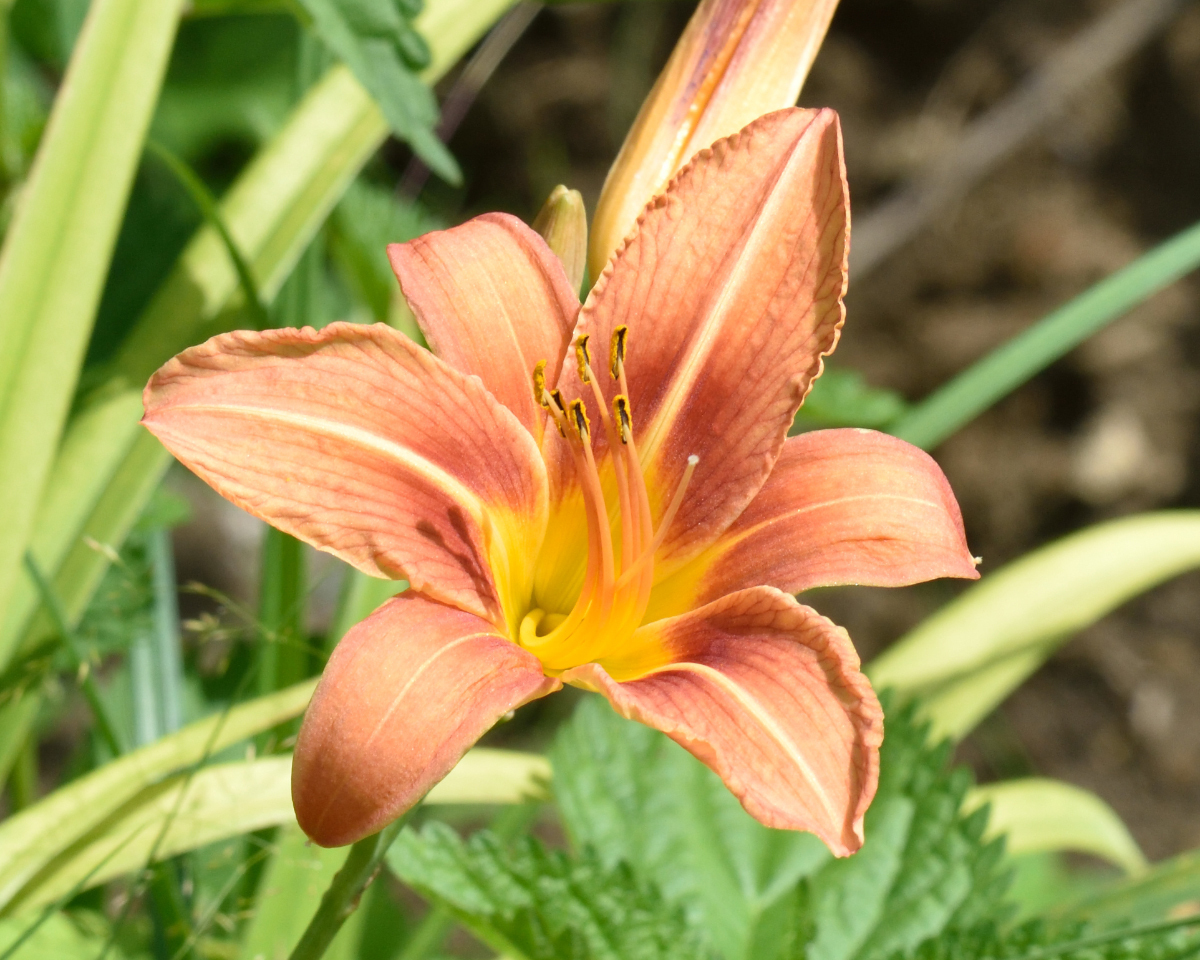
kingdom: Plantae
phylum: Tracheophyta
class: Liliopsida
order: Asparagales
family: Asphodelaceae
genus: Hemerocallis
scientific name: Hemerocallis fulva
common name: Orange day-lily
